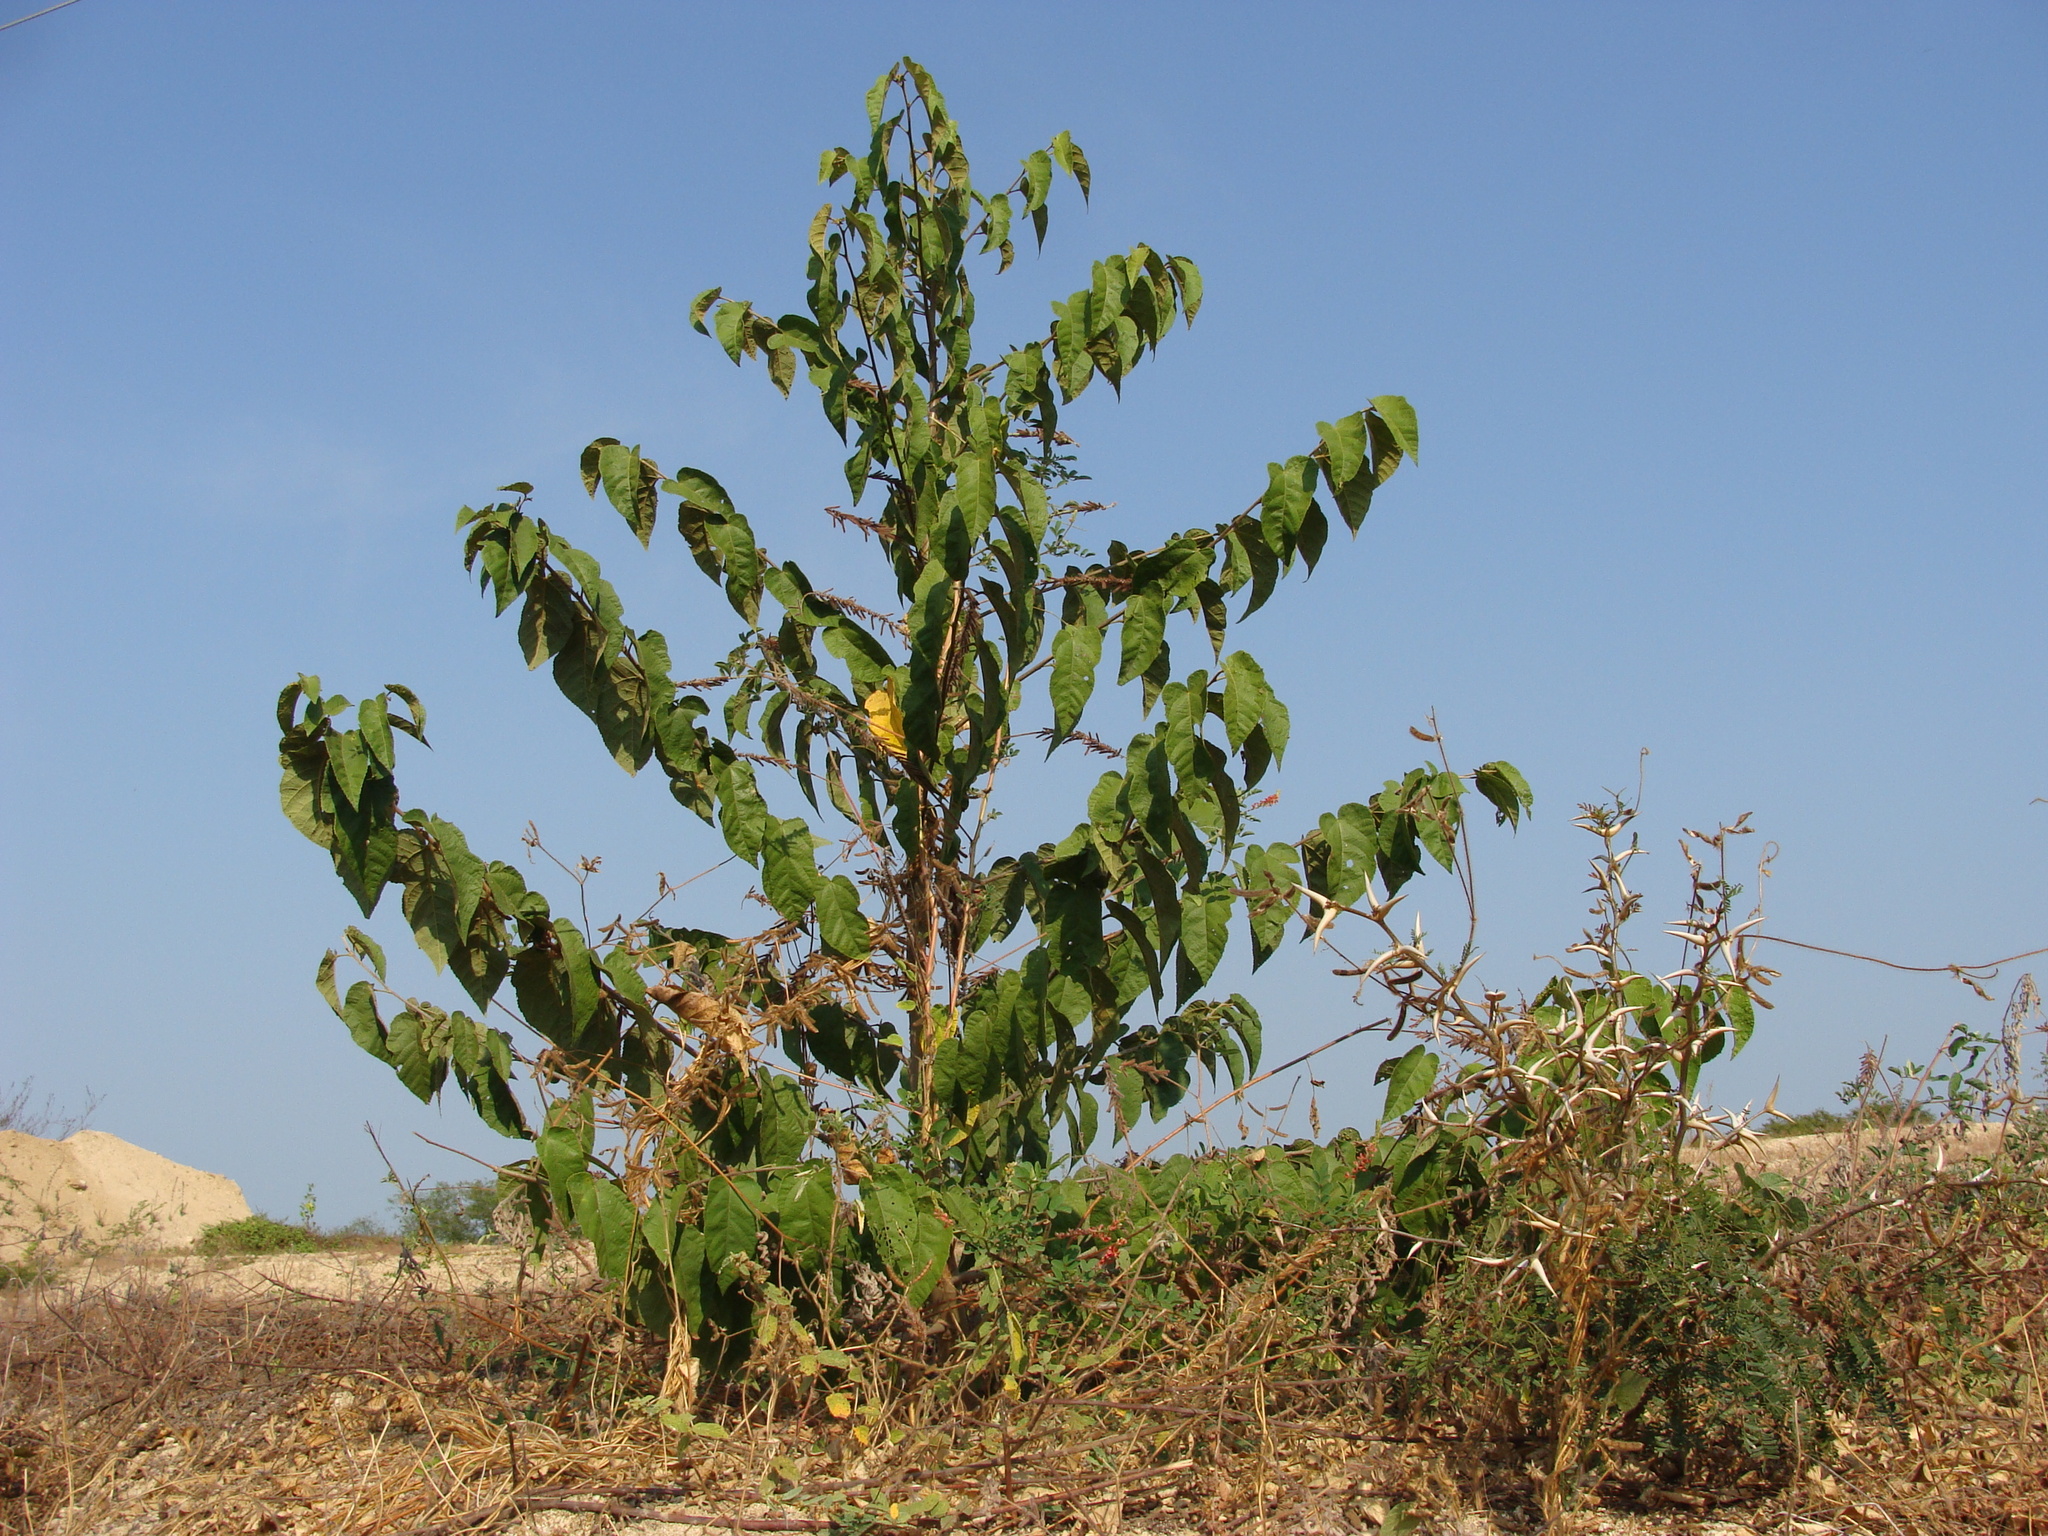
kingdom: Plantae
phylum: Tracheophyta
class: Magnoliopsida
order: Malvales
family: Malvaceae
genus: Guazuma
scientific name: Guazuma ulmifolia
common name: Bastard-cedar
